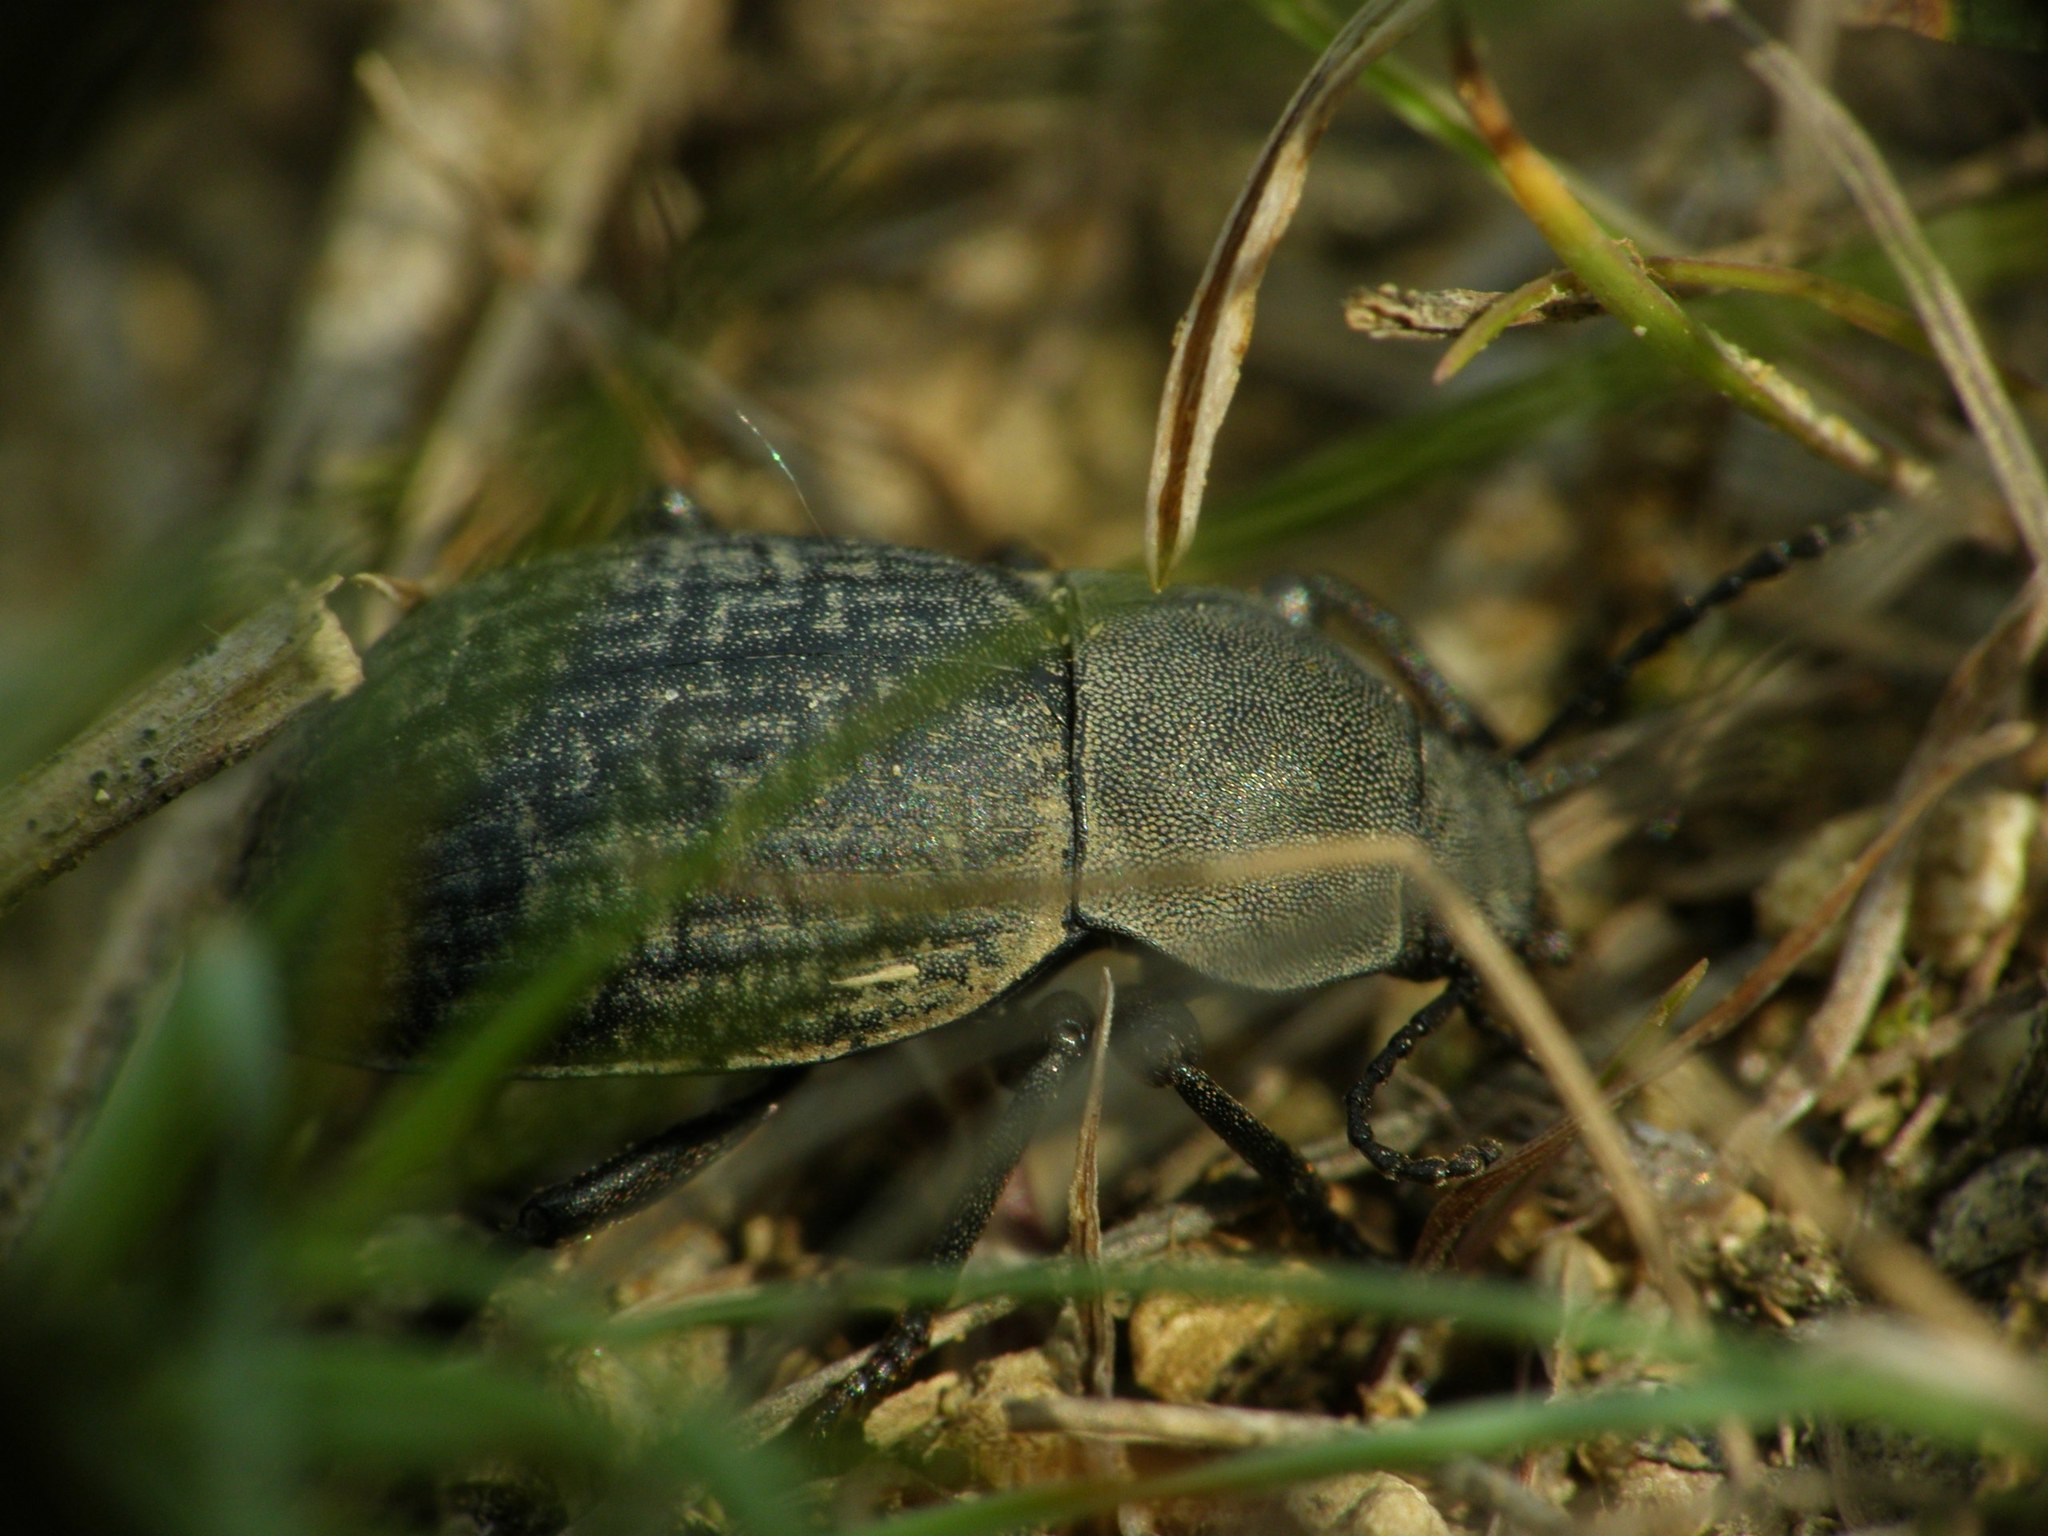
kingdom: Animalia
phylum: Arthropoda
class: Insecta
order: Coleoptera
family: Tenebrionidae
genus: Euboeus
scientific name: Euboeus
